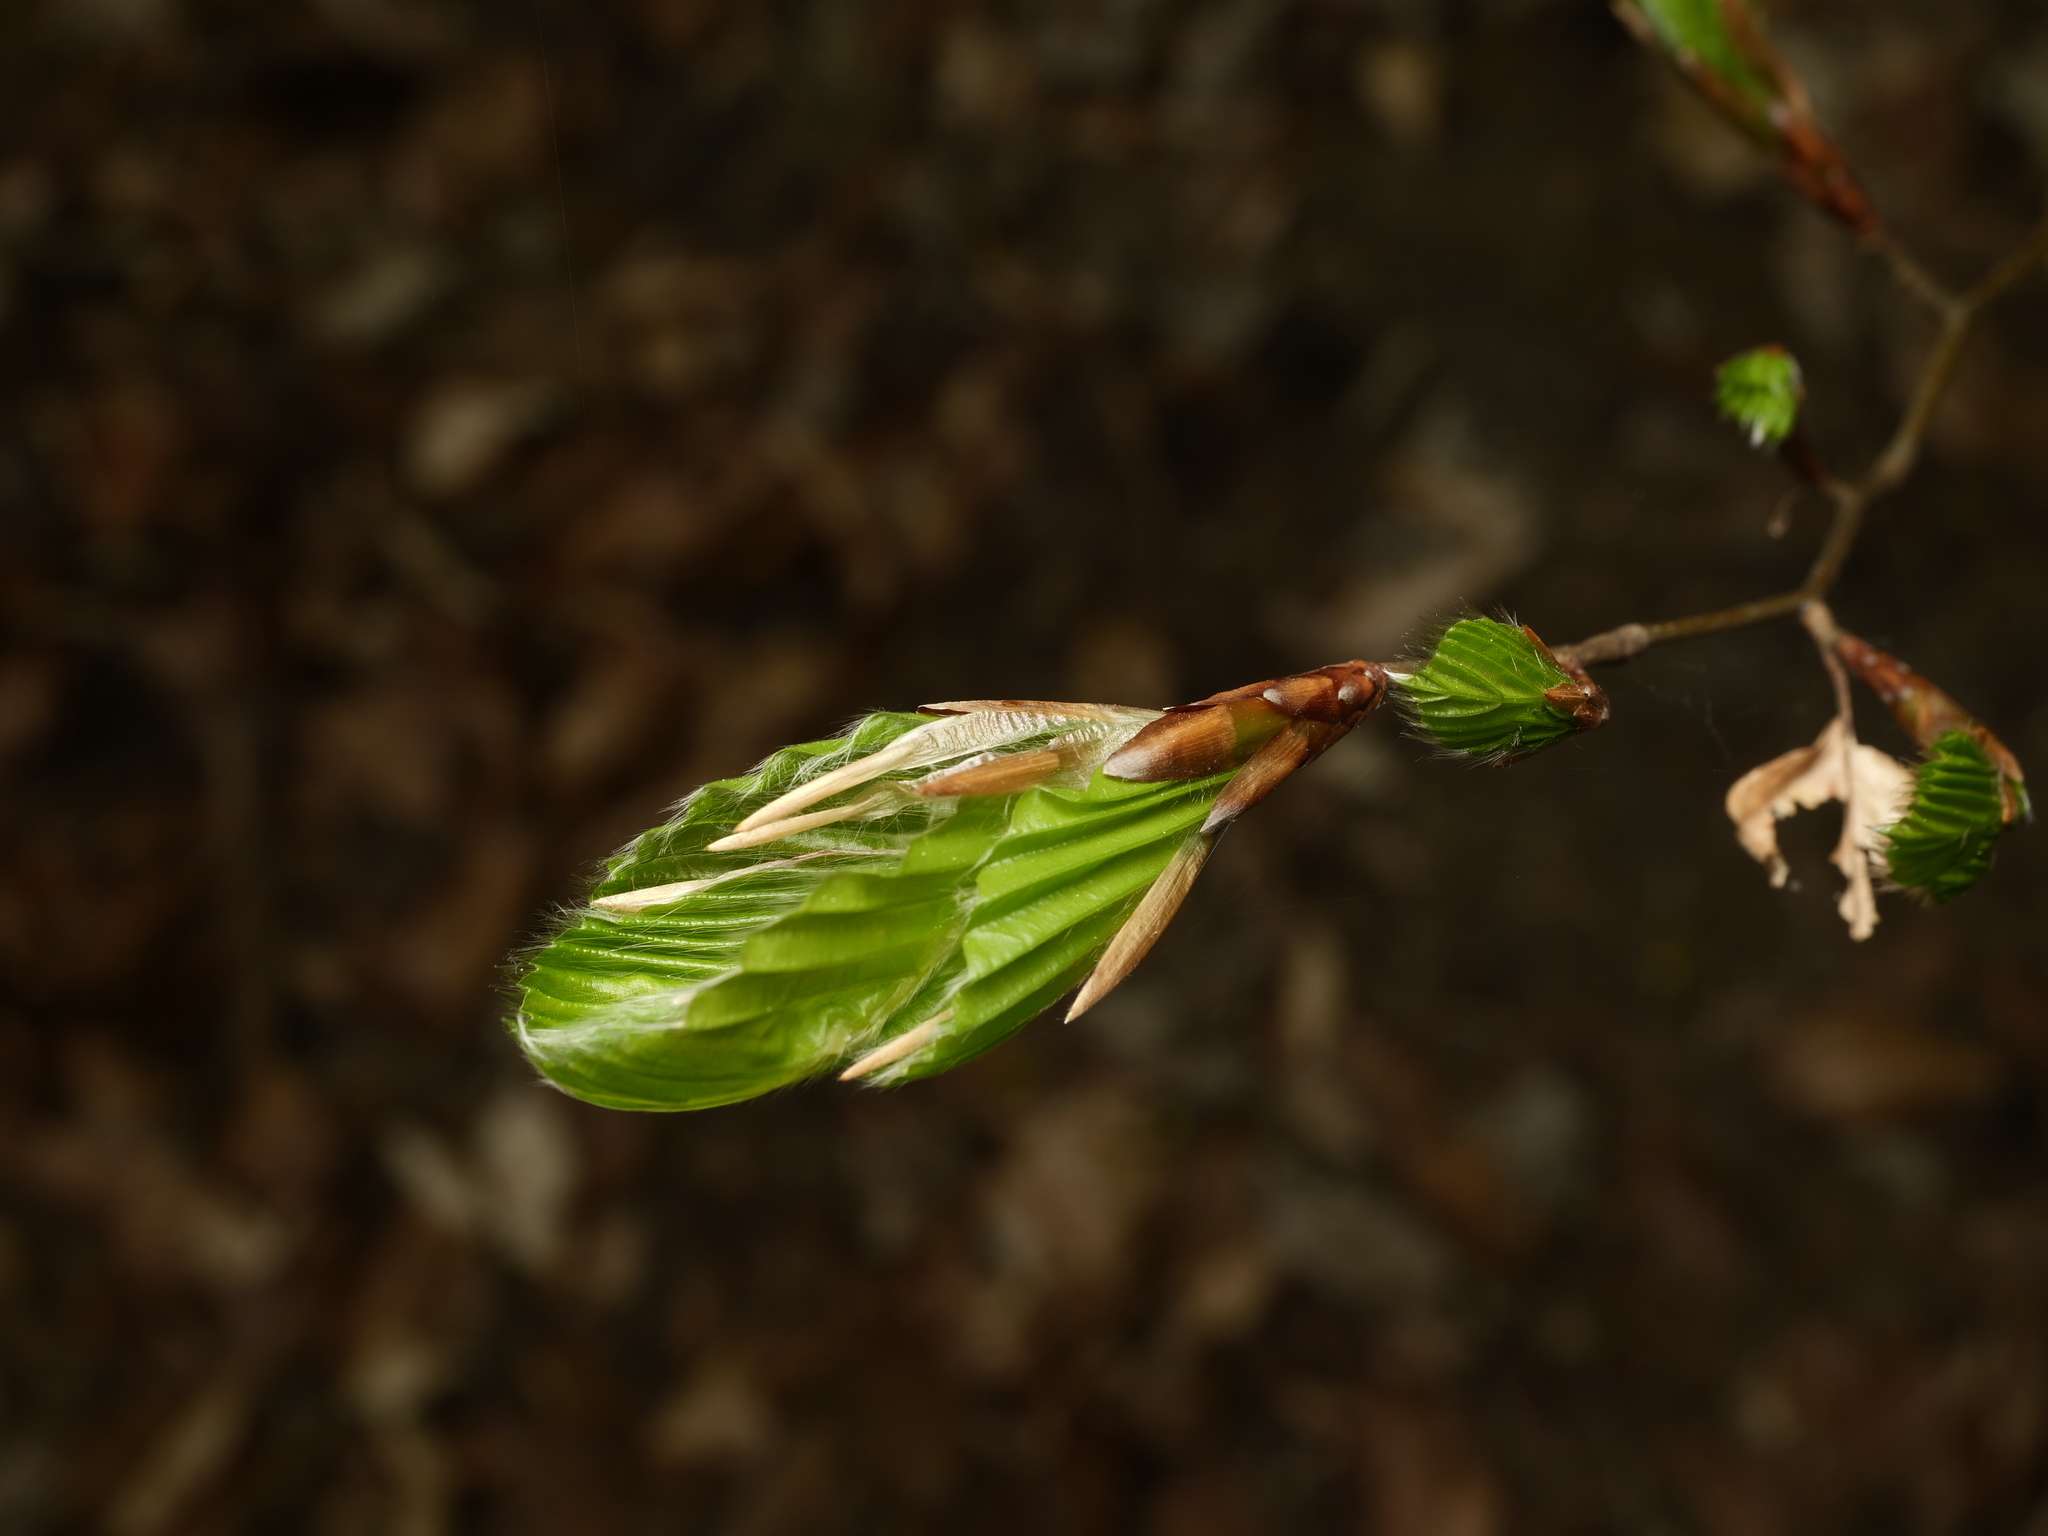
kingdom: Plantae
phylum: Tracheophyta
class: Magnoliopsida
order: Fagales
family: Fagaceae
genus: Fagus
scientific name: Fagus sylvatica
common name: Beech
